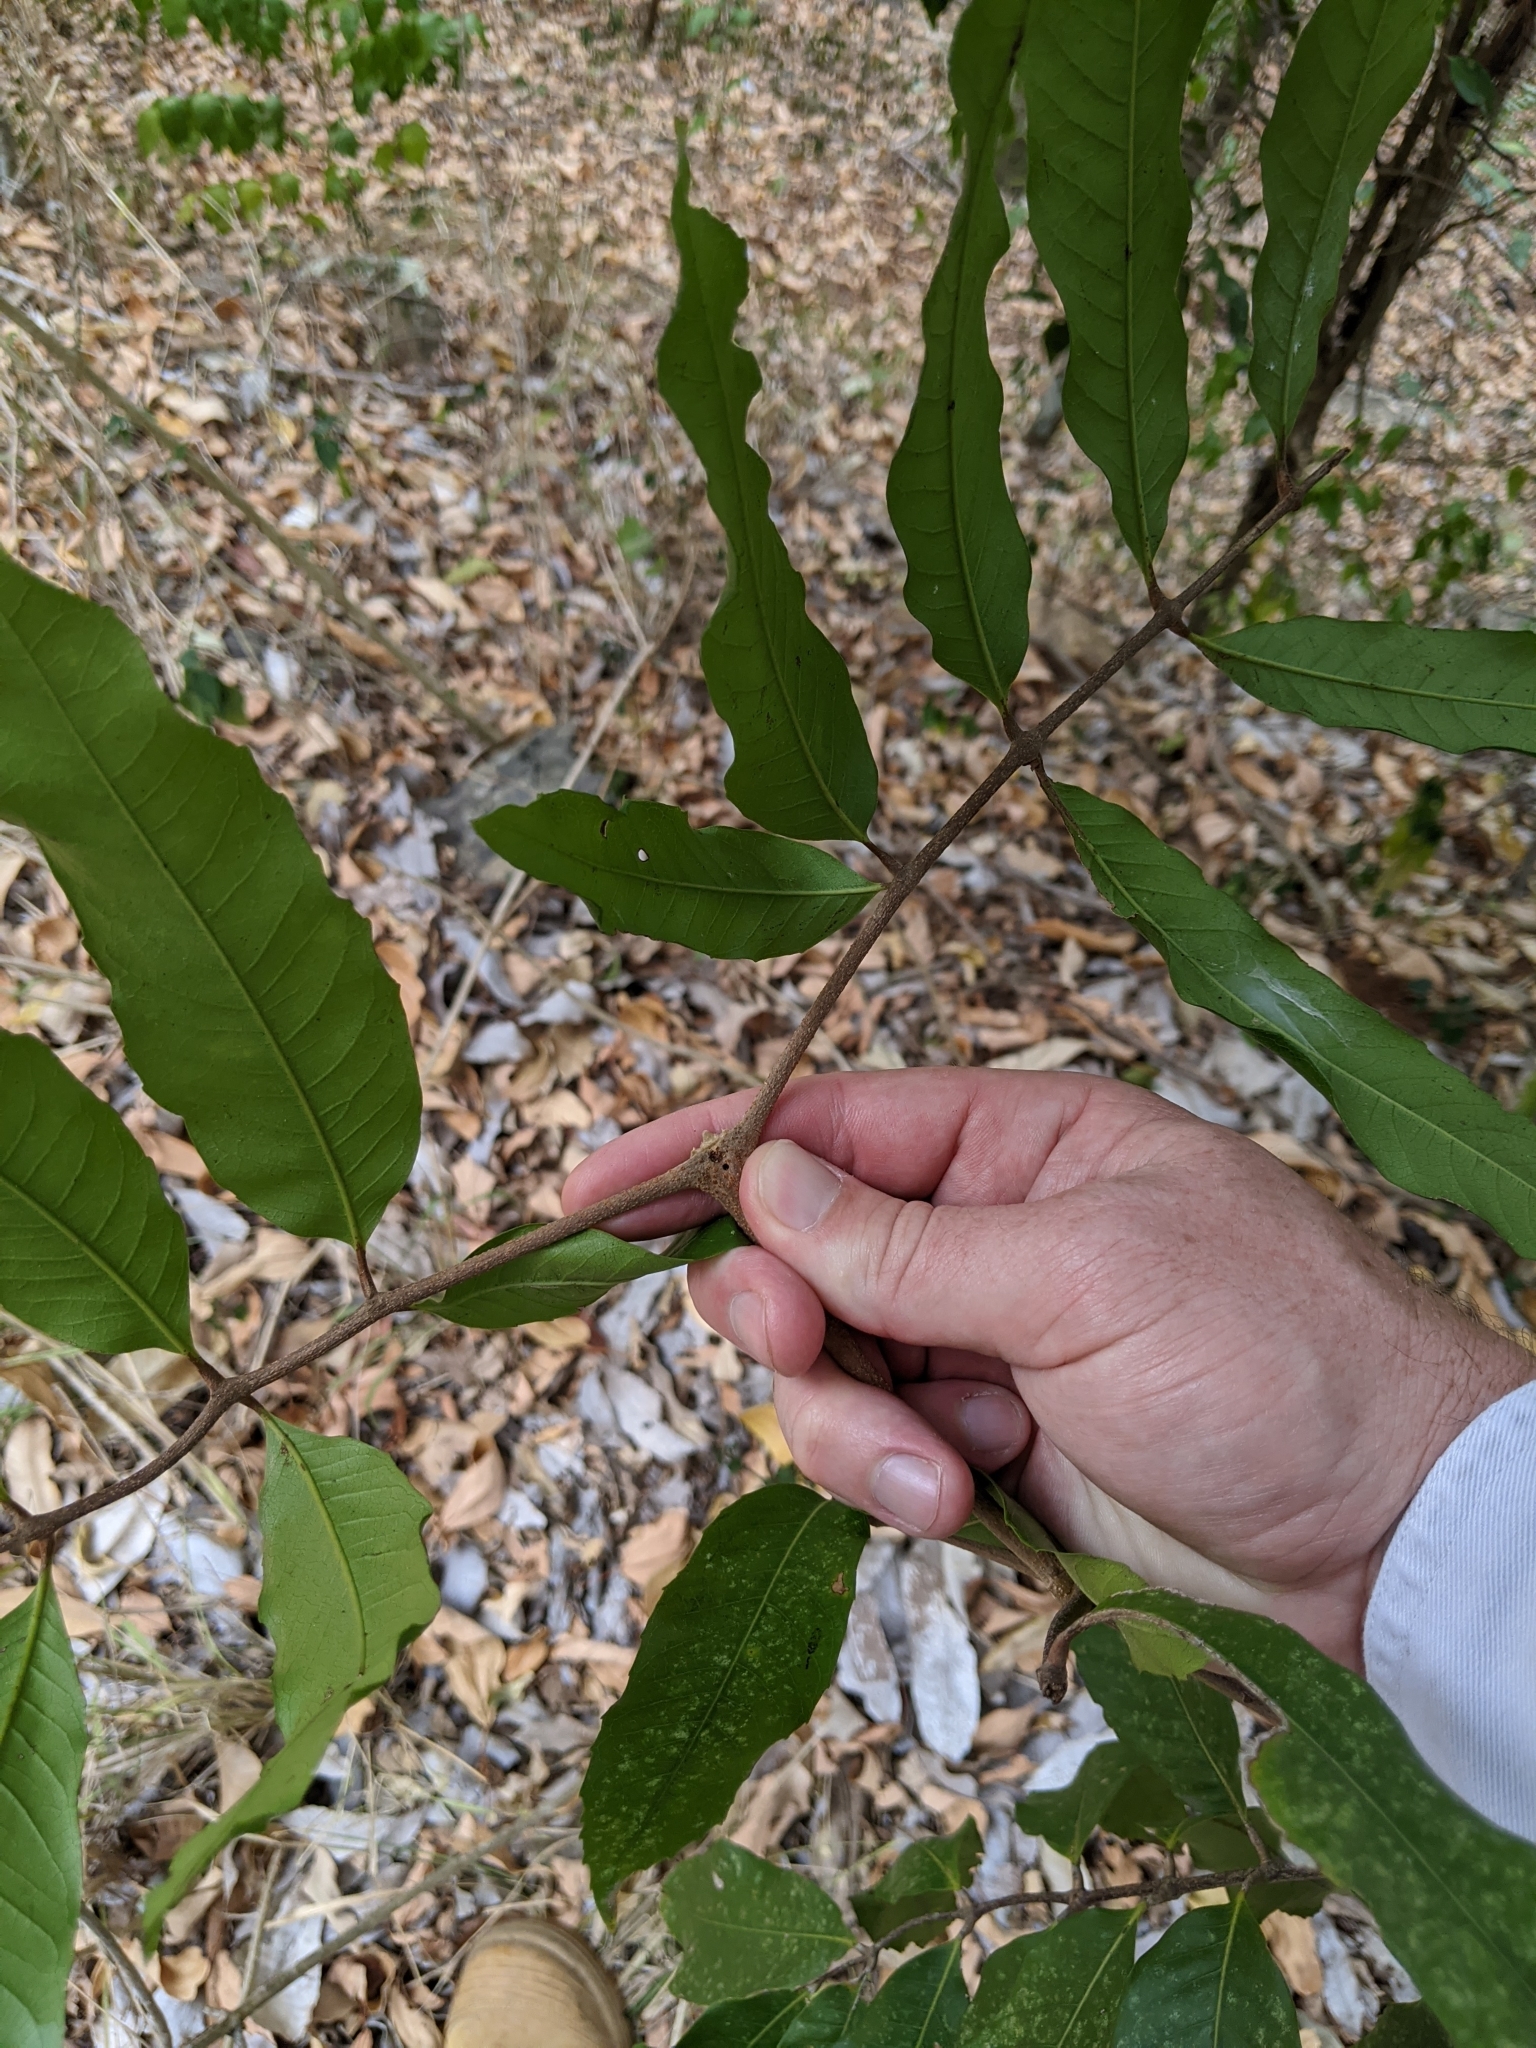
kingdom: Plantae
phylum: Tracheophyta
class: Magnoliopsida
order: Sapindales
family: Rutaceae
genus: Bosistoa
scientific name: Bosistoa pentacocca
